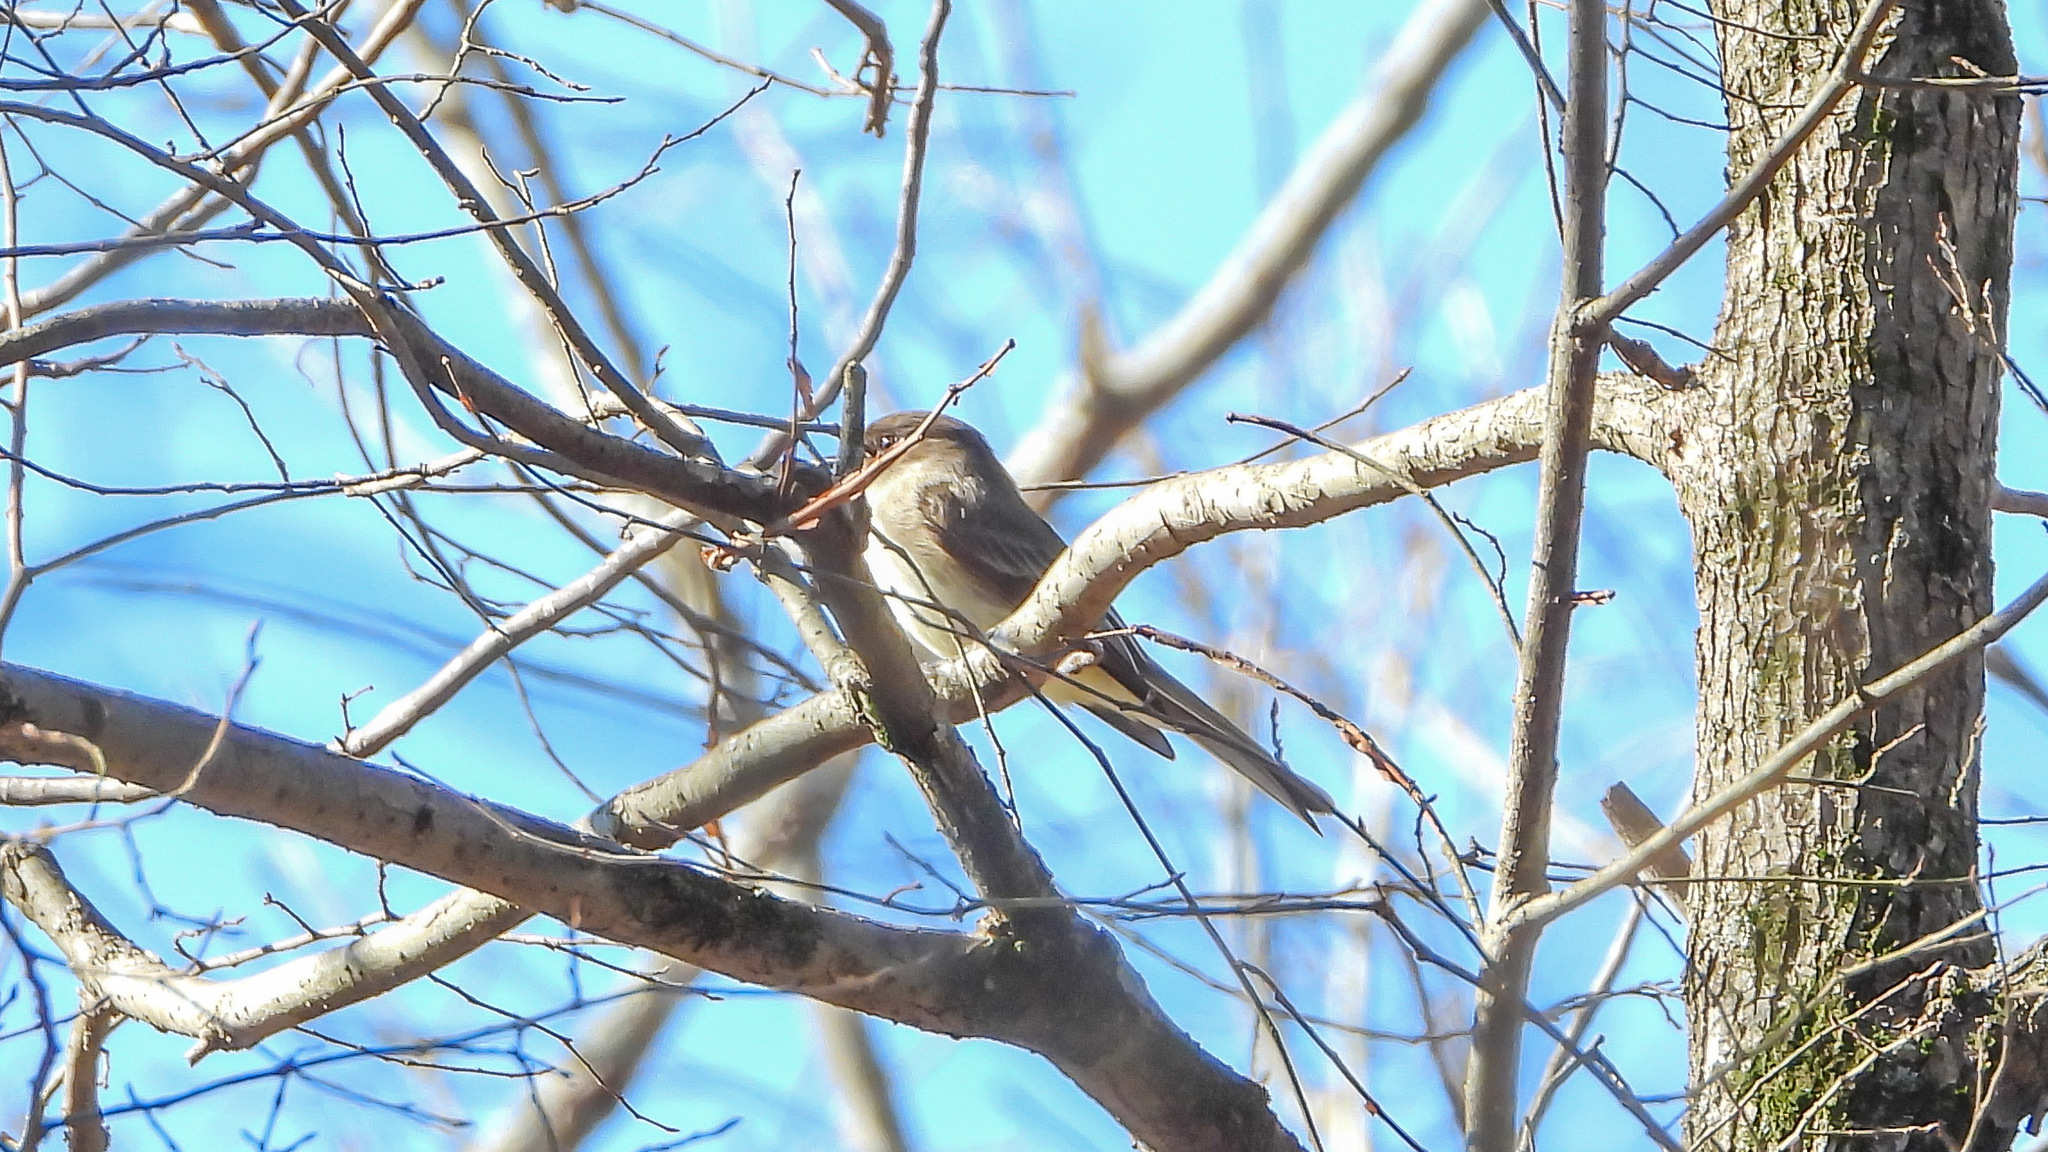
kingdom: Animalia
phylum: Chordata
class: Aves
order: Passeriformes
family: Tyrannidae
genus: Sayornis
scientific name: Sayornis phoebe
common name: Eastern phoebe
